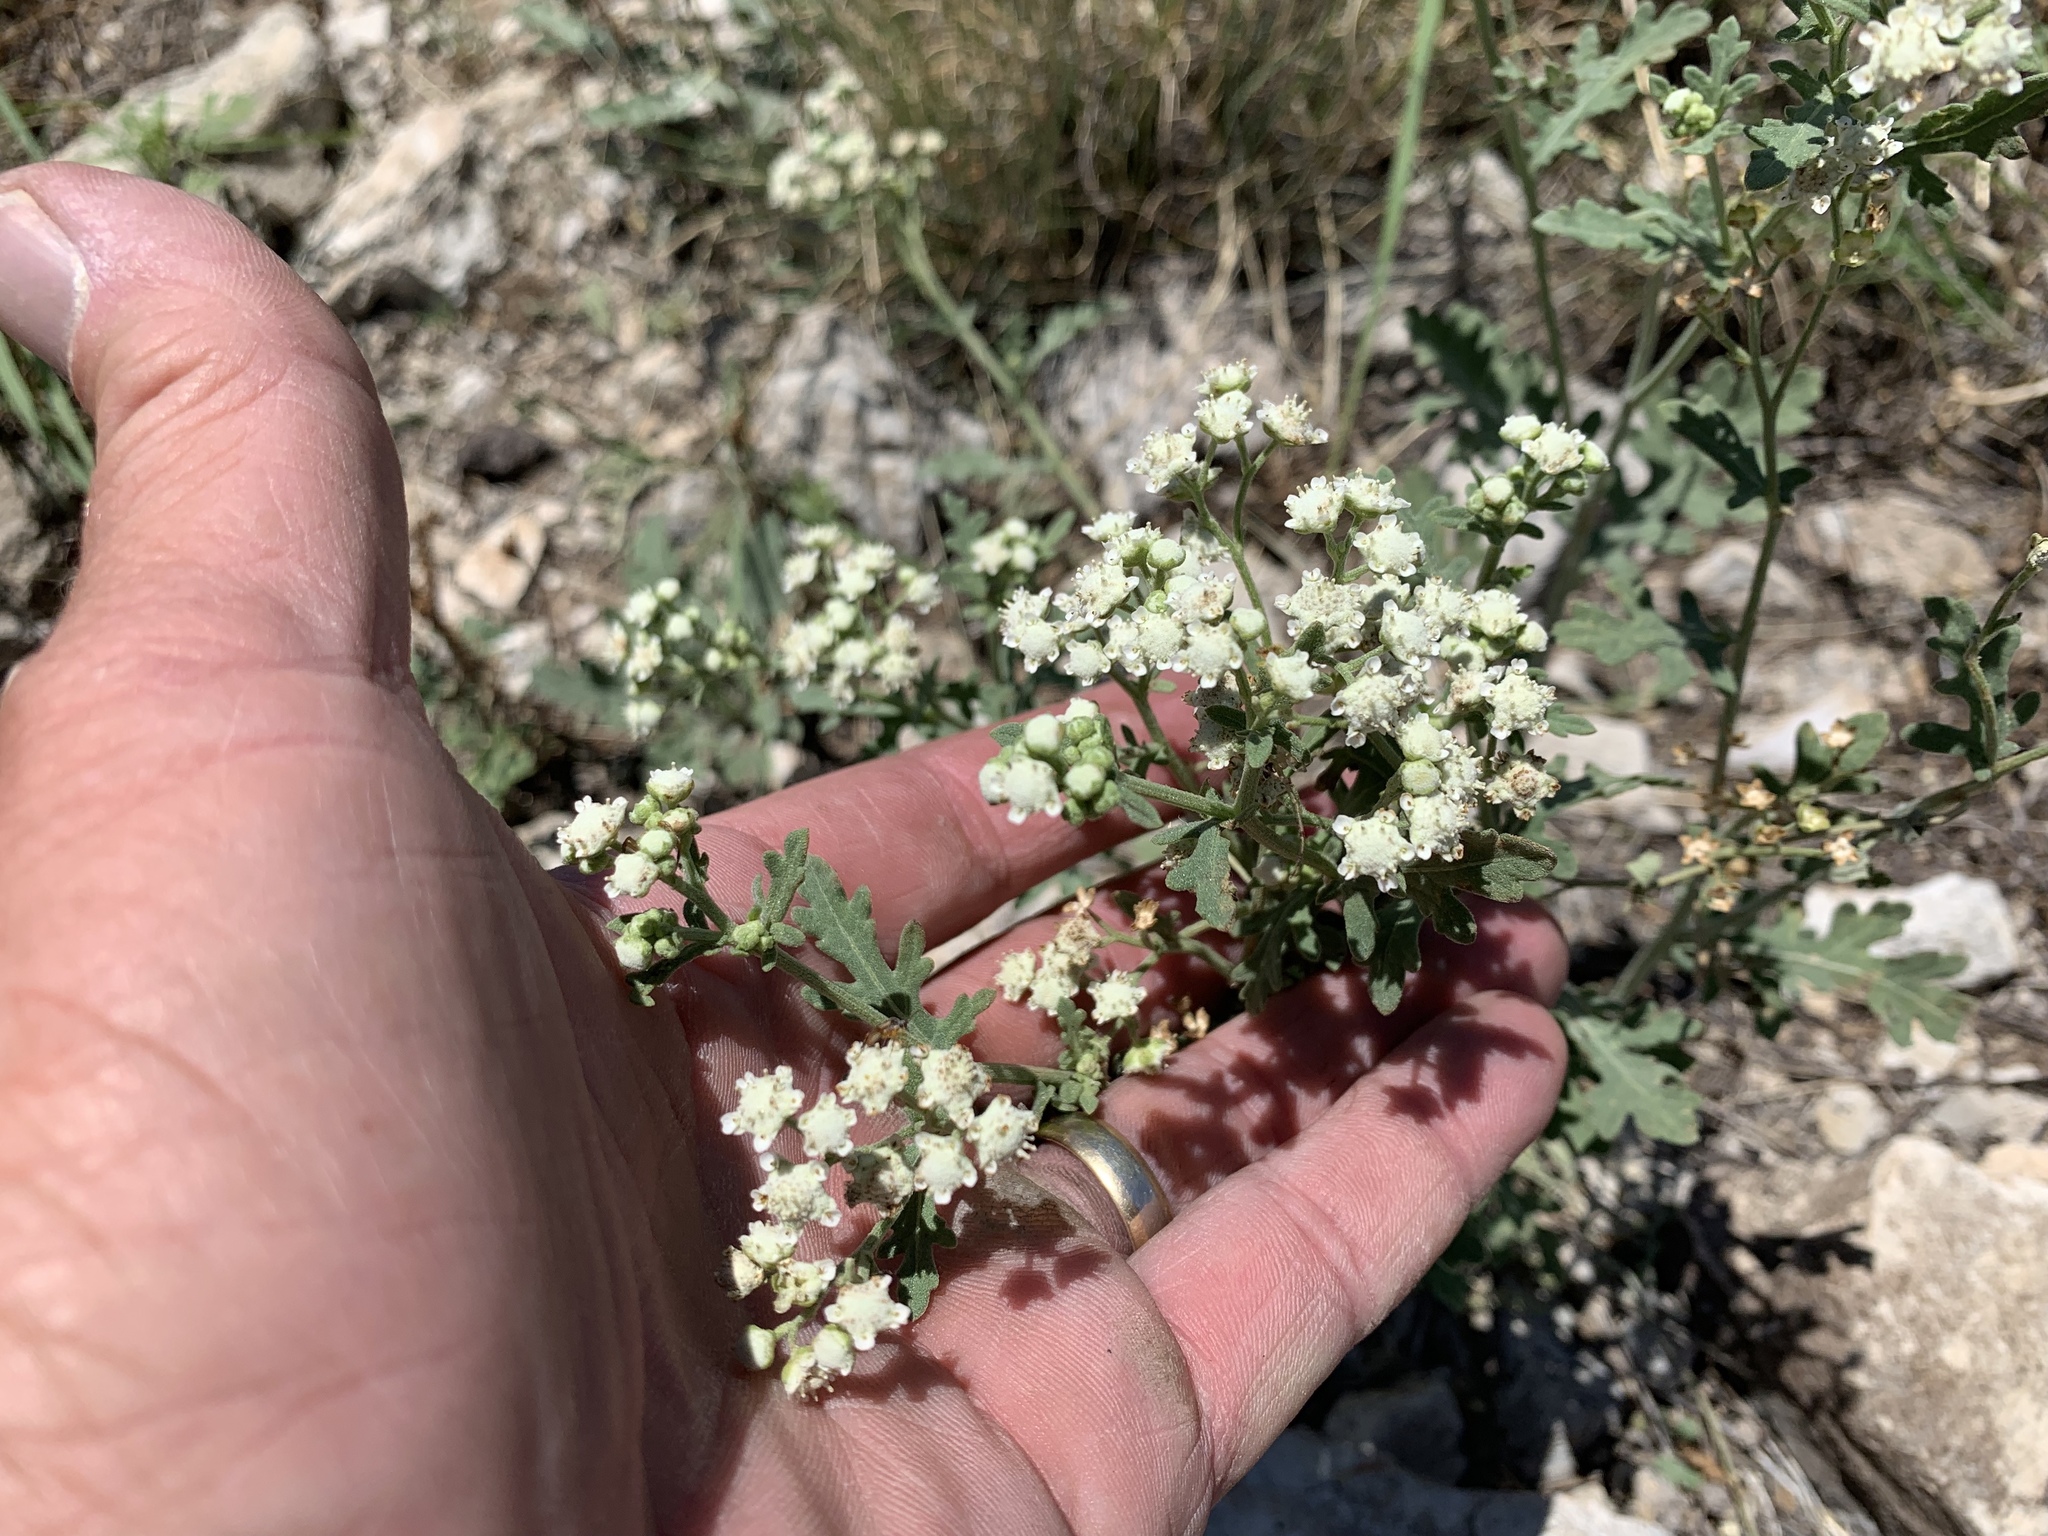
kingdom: Plantae
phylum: Tracheophyta
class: Magnoliopsida
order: Asterales
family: Asteraceae
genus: Parthenium
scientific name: Parthenium confertum
